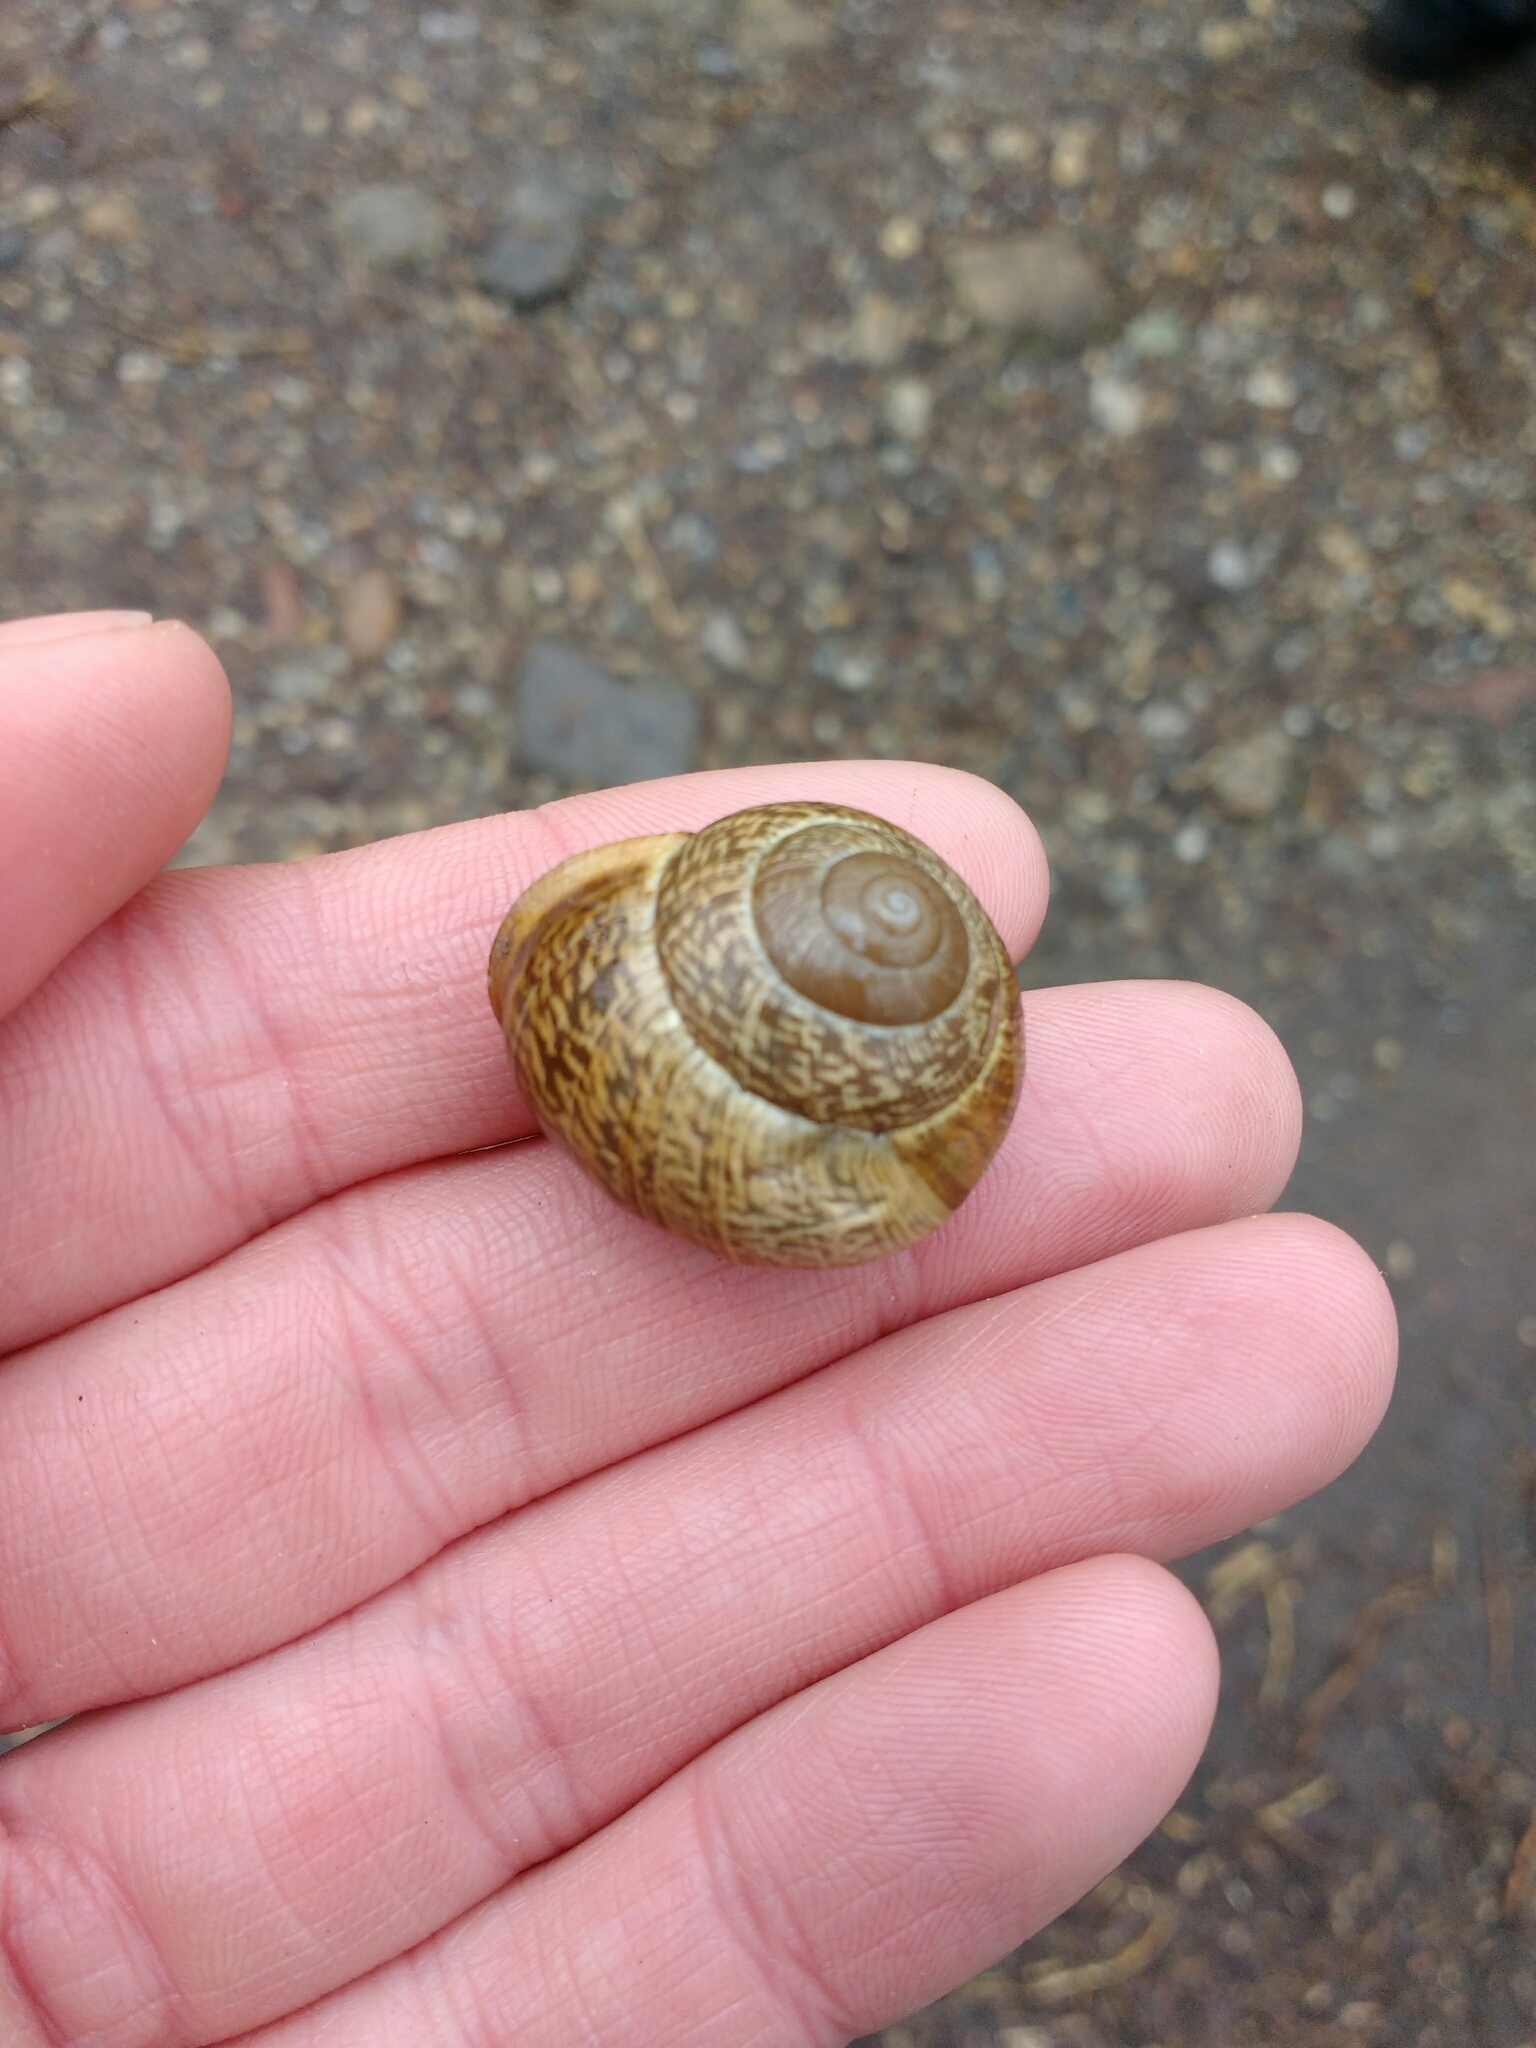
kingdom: Animalia
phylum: Mollusca
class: Gastropoda
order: Stylommatophora
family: Helicidae
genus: Arianta
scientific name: Arianta arbustorum
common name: Copse snail
